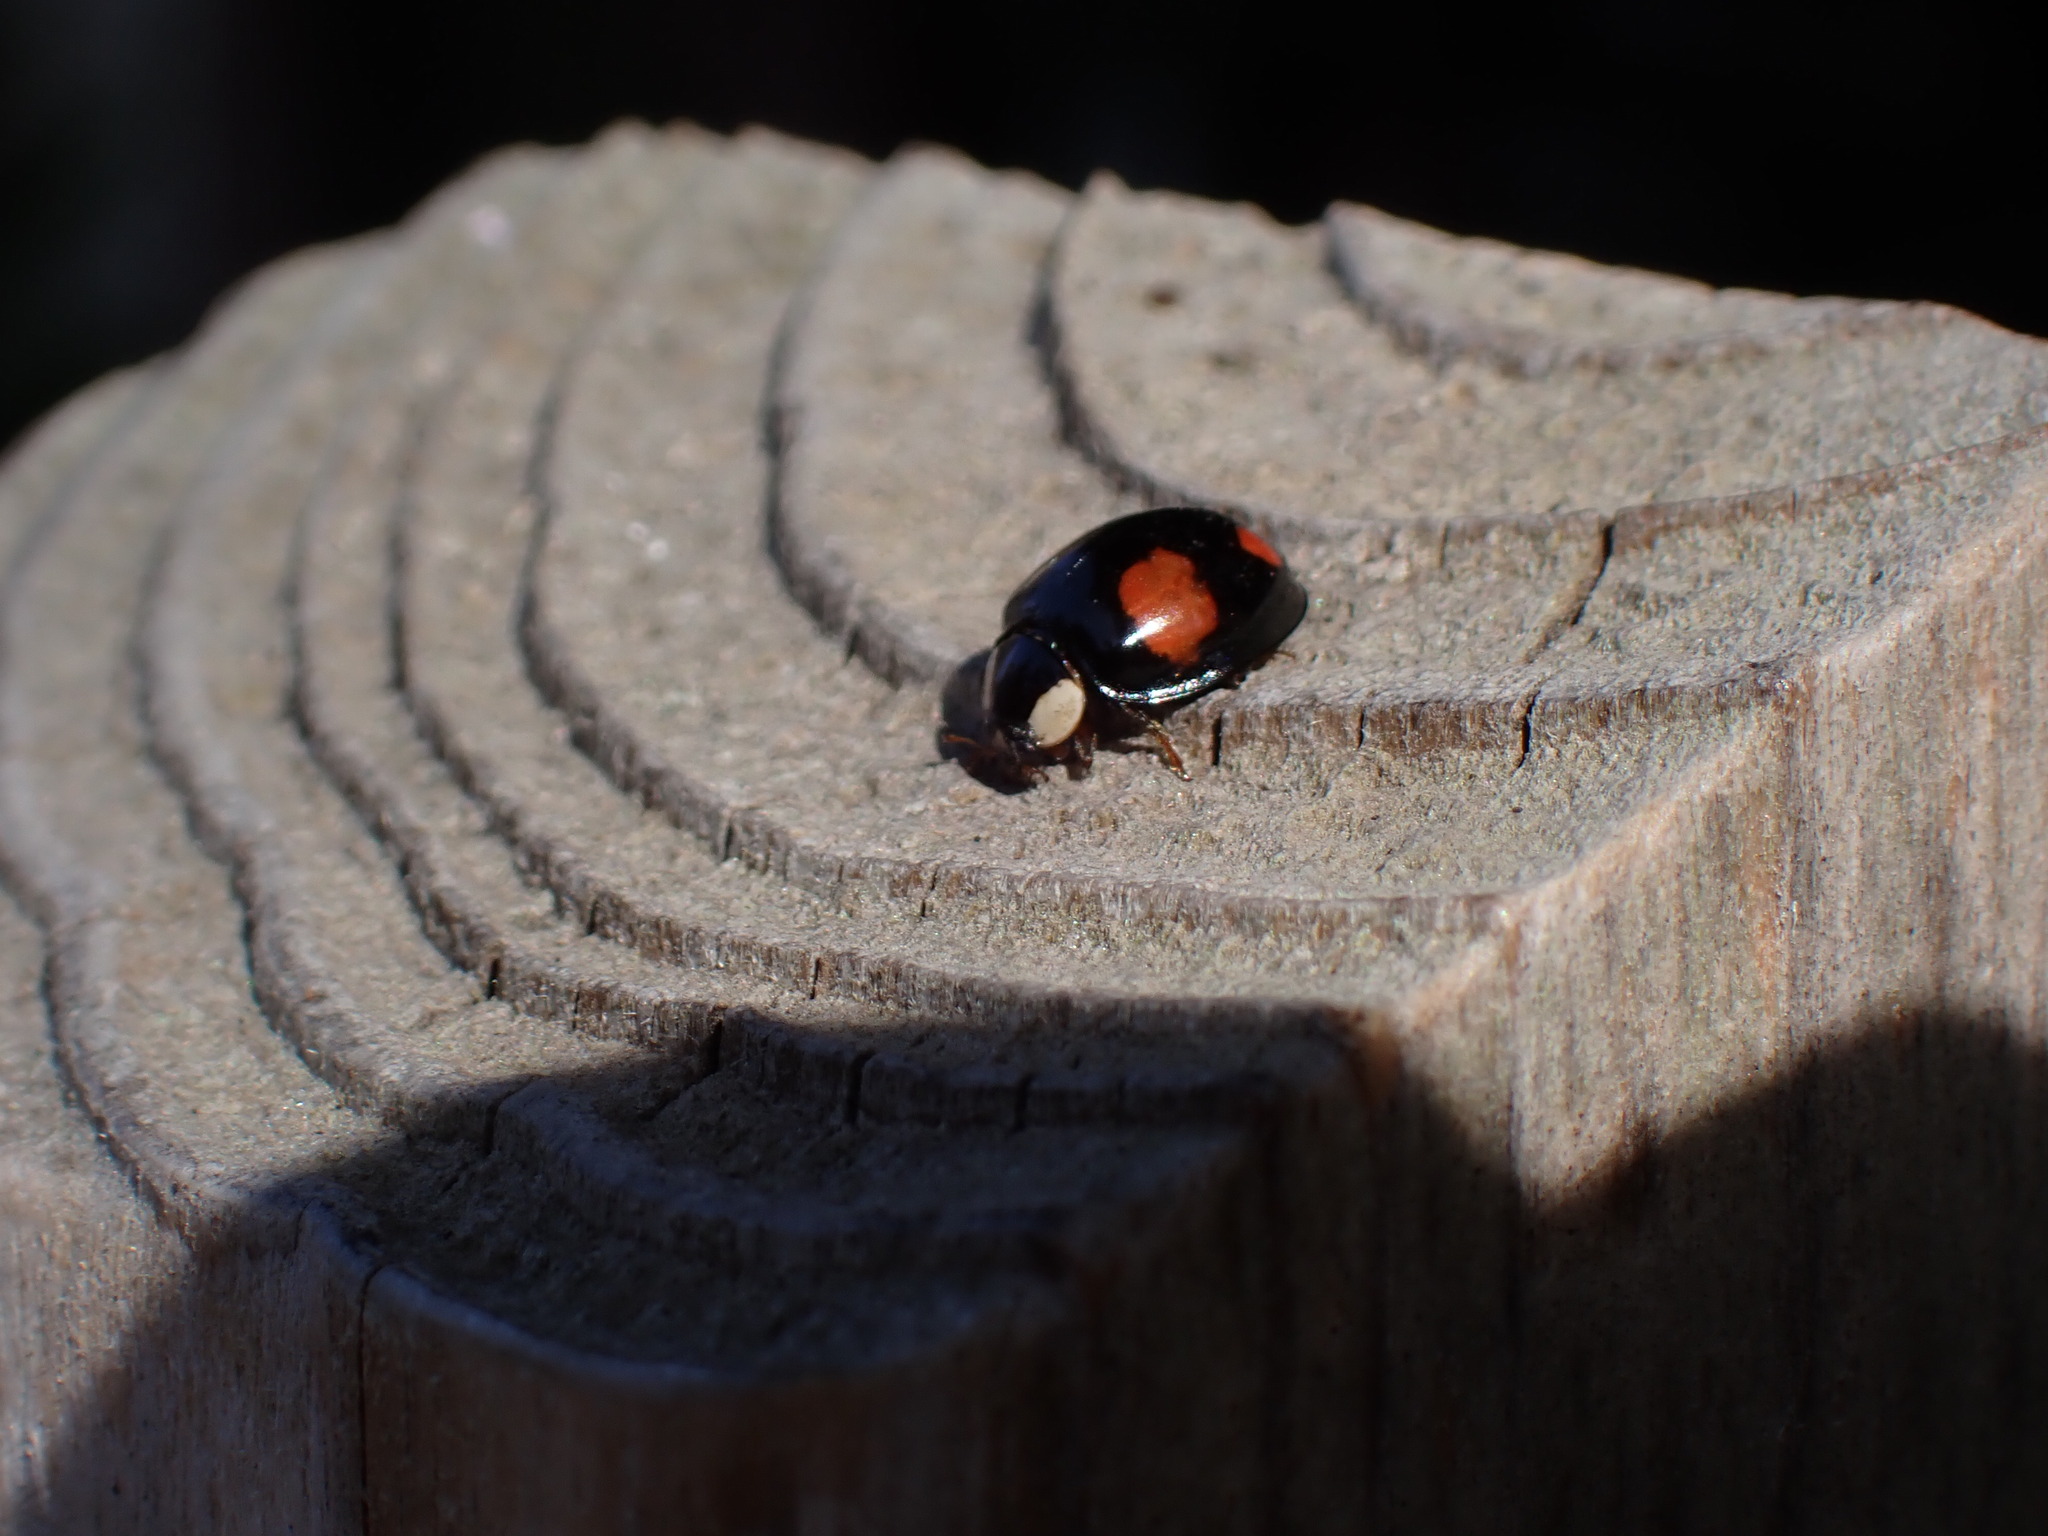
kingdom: Animalia
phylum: Arthropoda
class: Insecta
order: Coleoptera
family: Coccinellidae
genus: Harmonia
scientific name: Harmonia axyridis
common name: Harlequin ladybird
